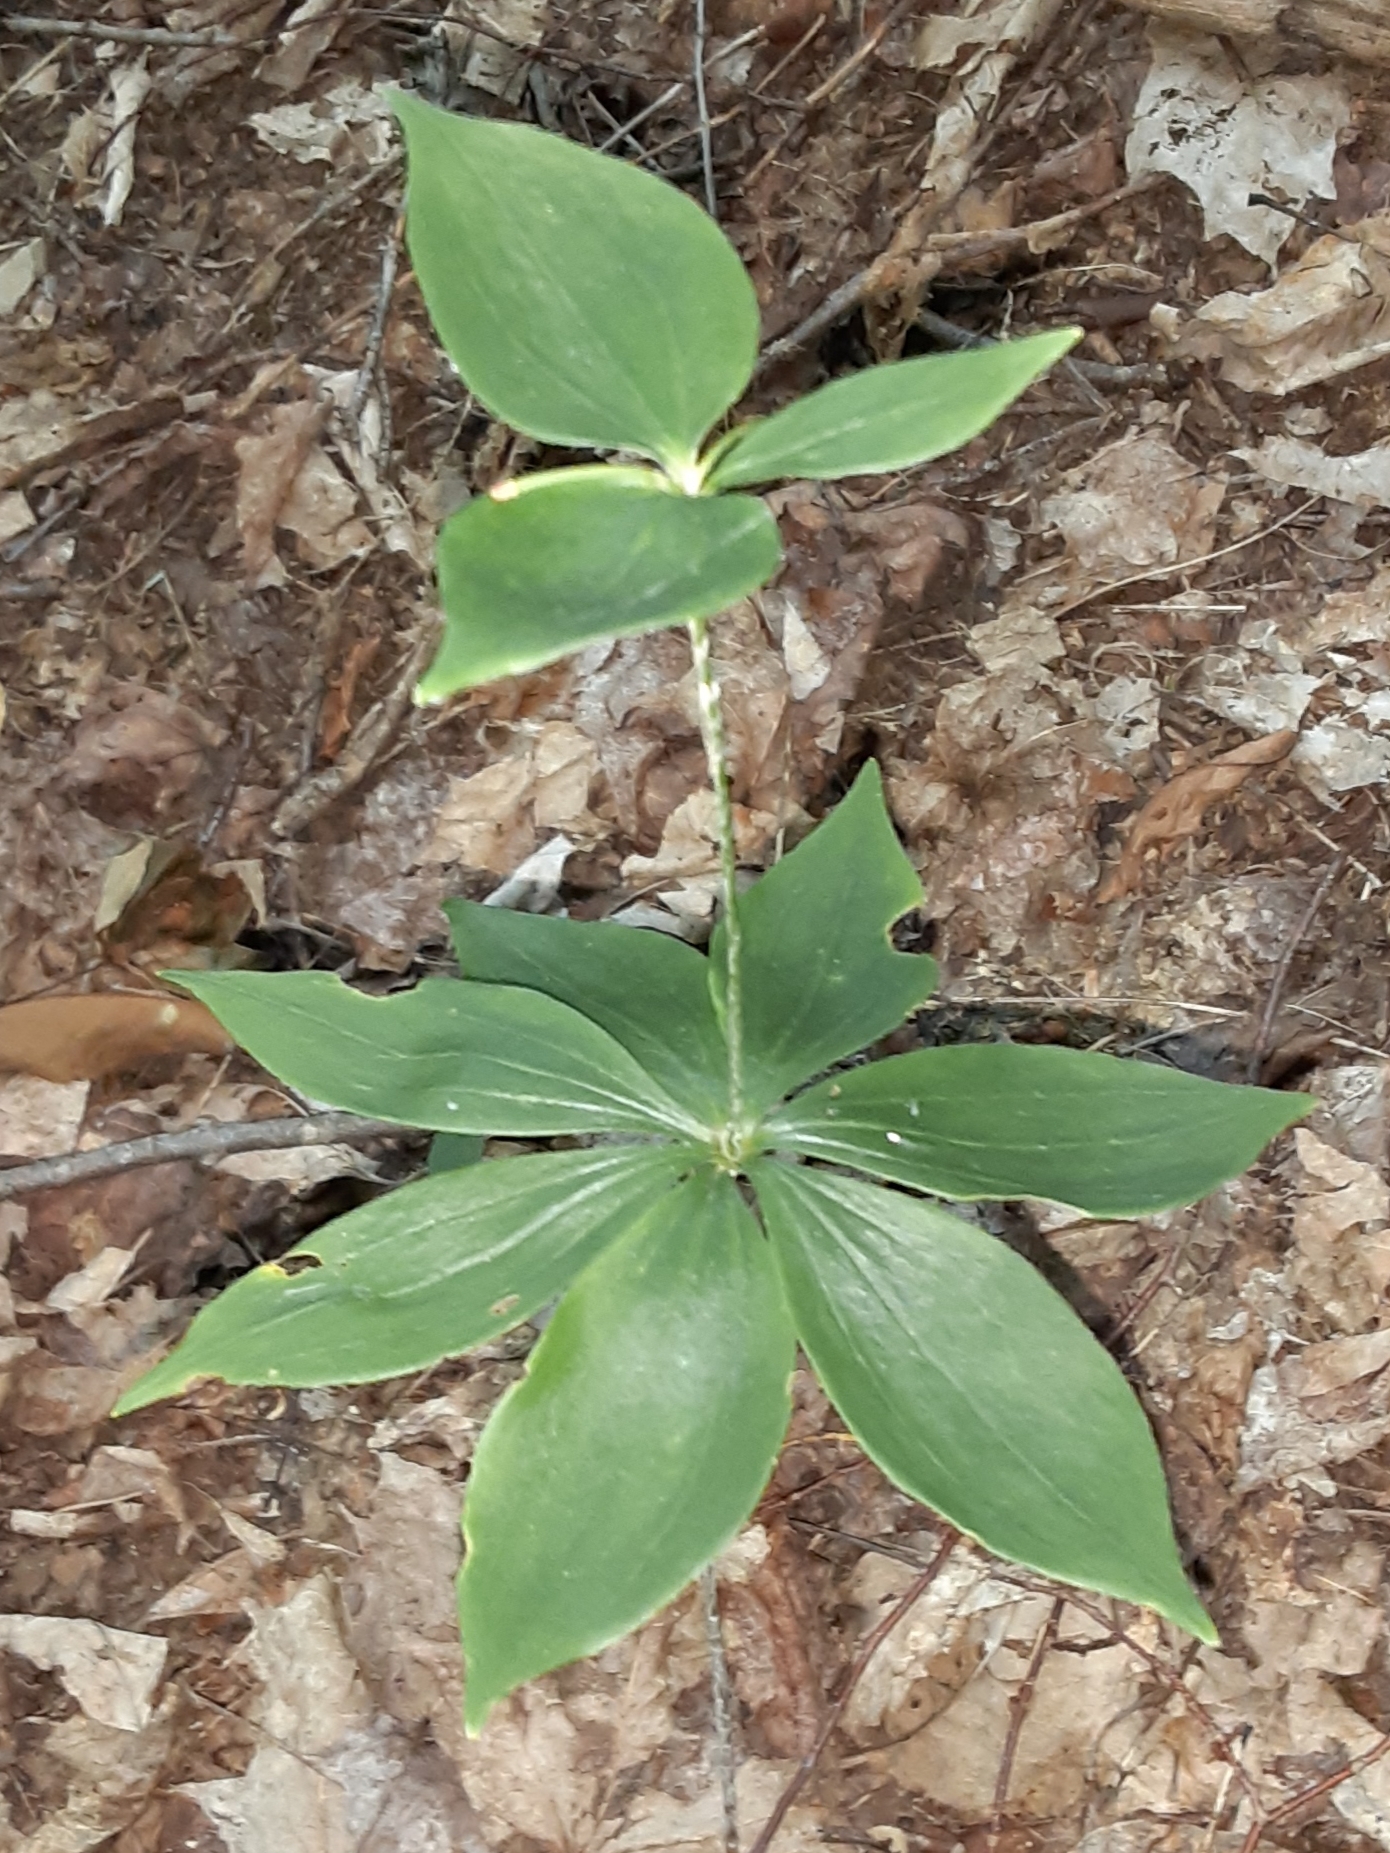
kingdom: Plantae
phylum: Tracheophyta
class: Liliopsida
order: Liliales
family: Liliaceae
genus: Medeola
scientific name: Medeola virginiana
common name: Indian cucumber-root
